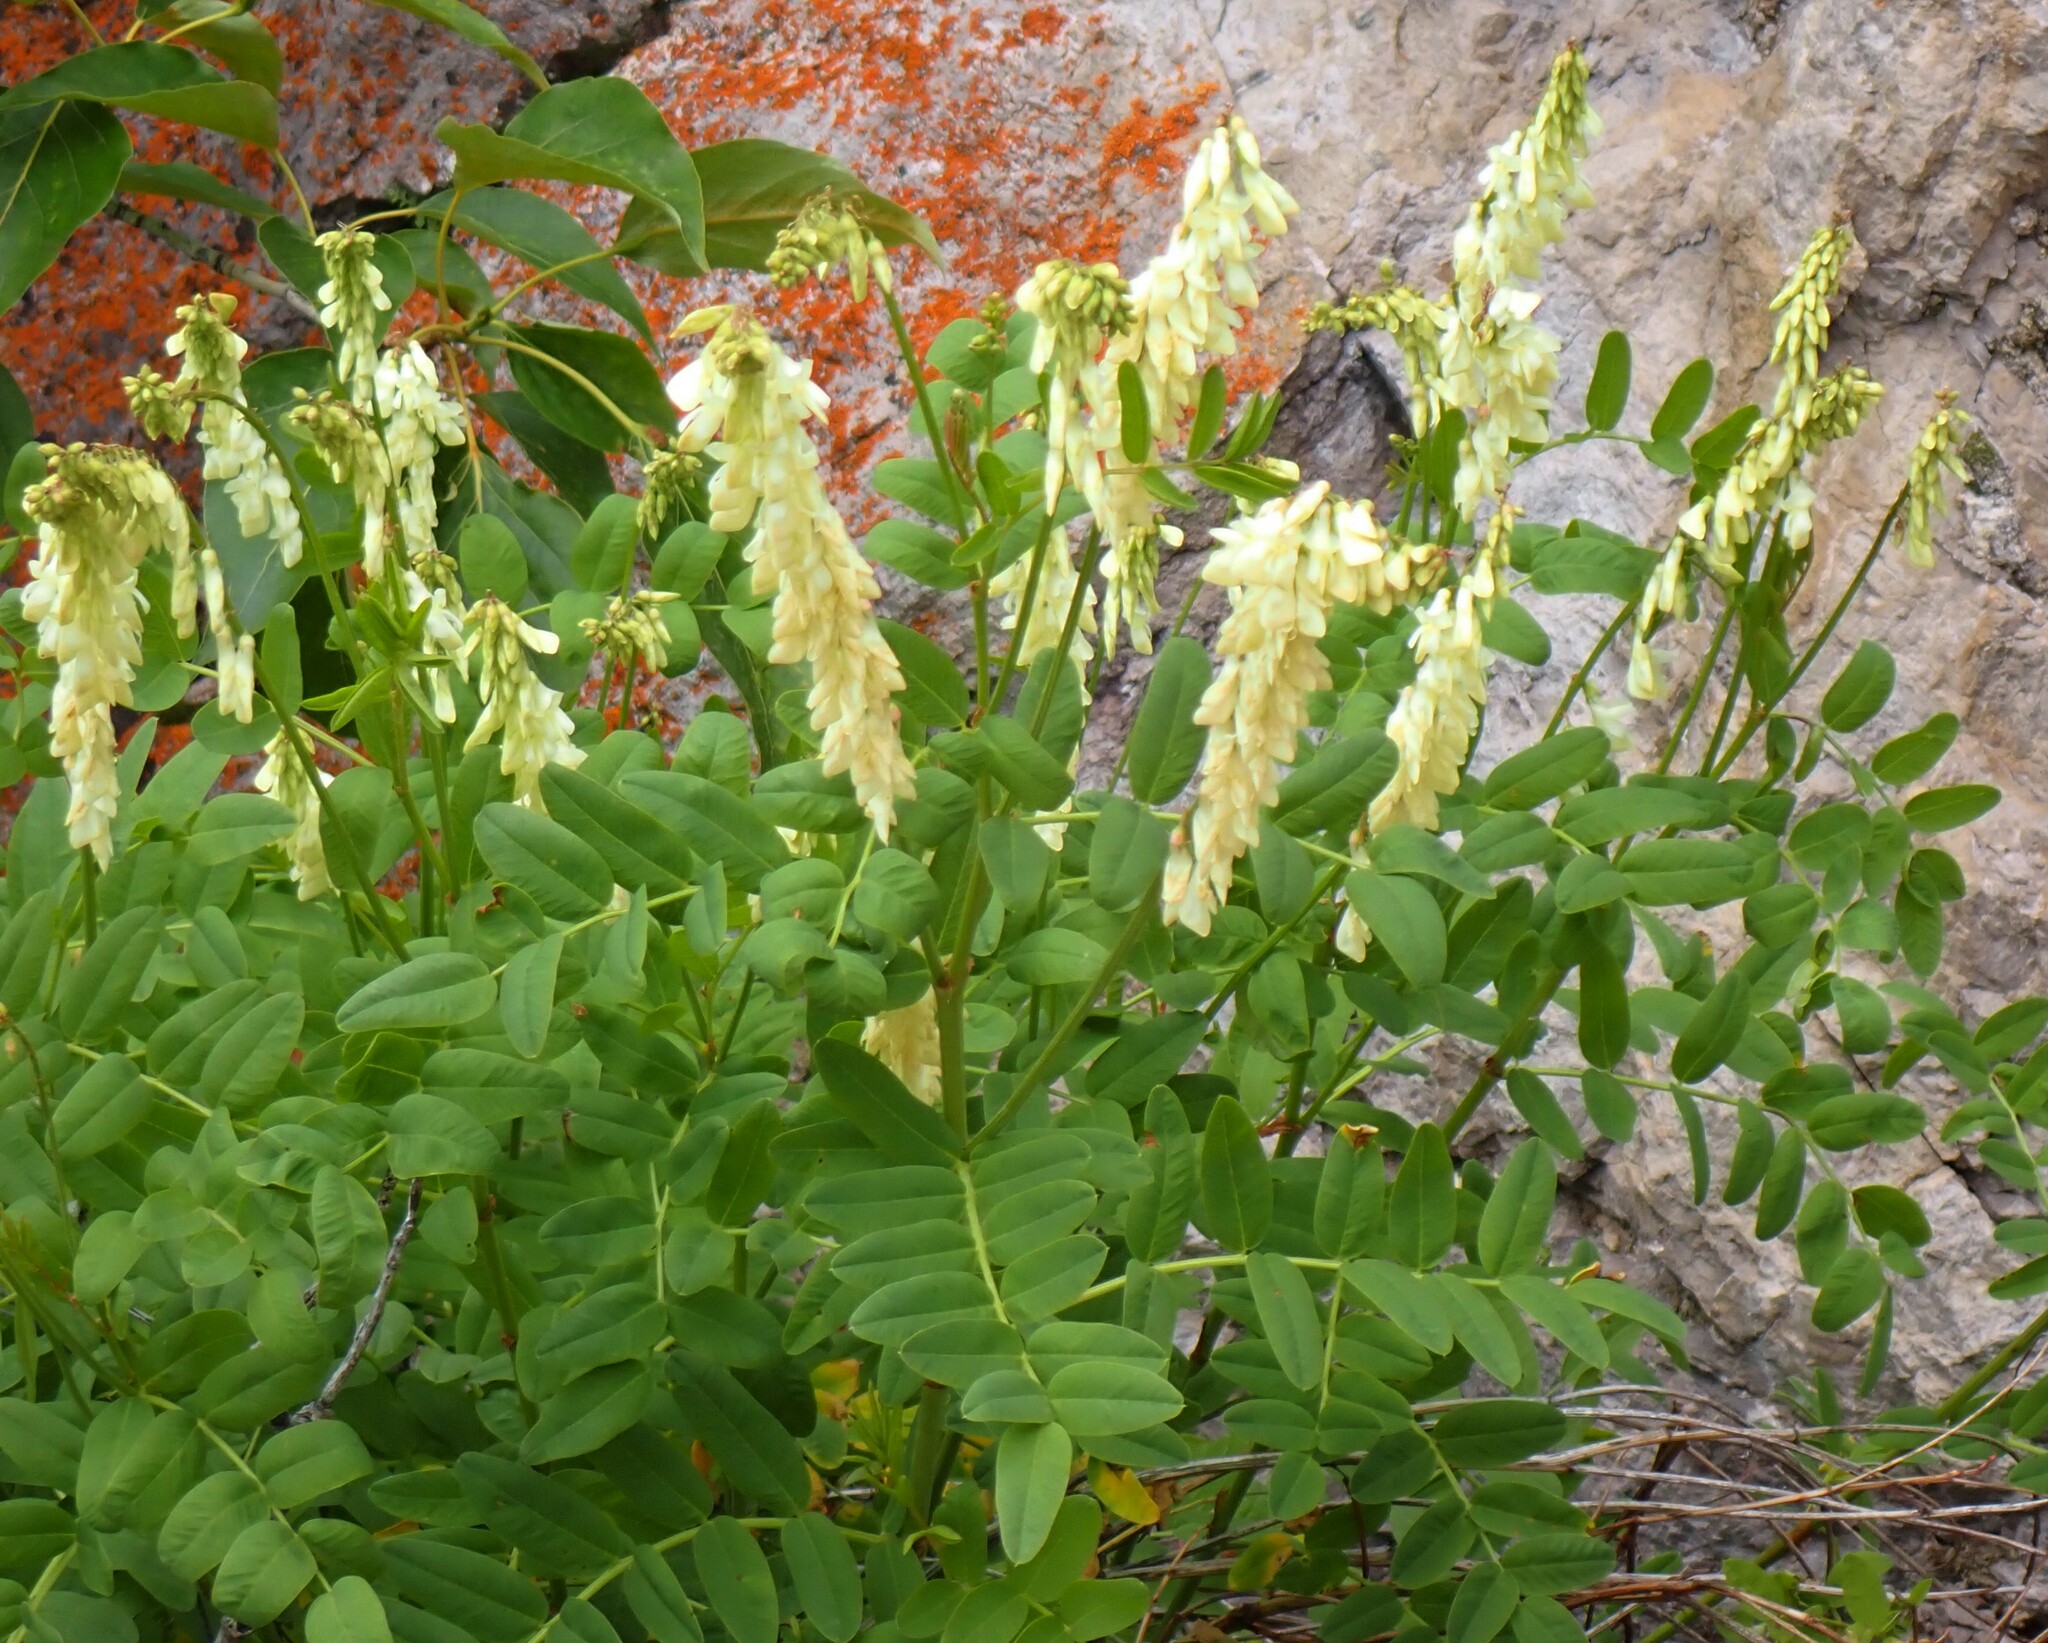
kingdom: Plantae
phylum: Tracheophyta
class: Magnoliopsida
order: Fabales
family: Fabaceae
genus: Hedysarum
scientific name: Hedysarum sulphurescens
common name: Sulphur hedysarum
